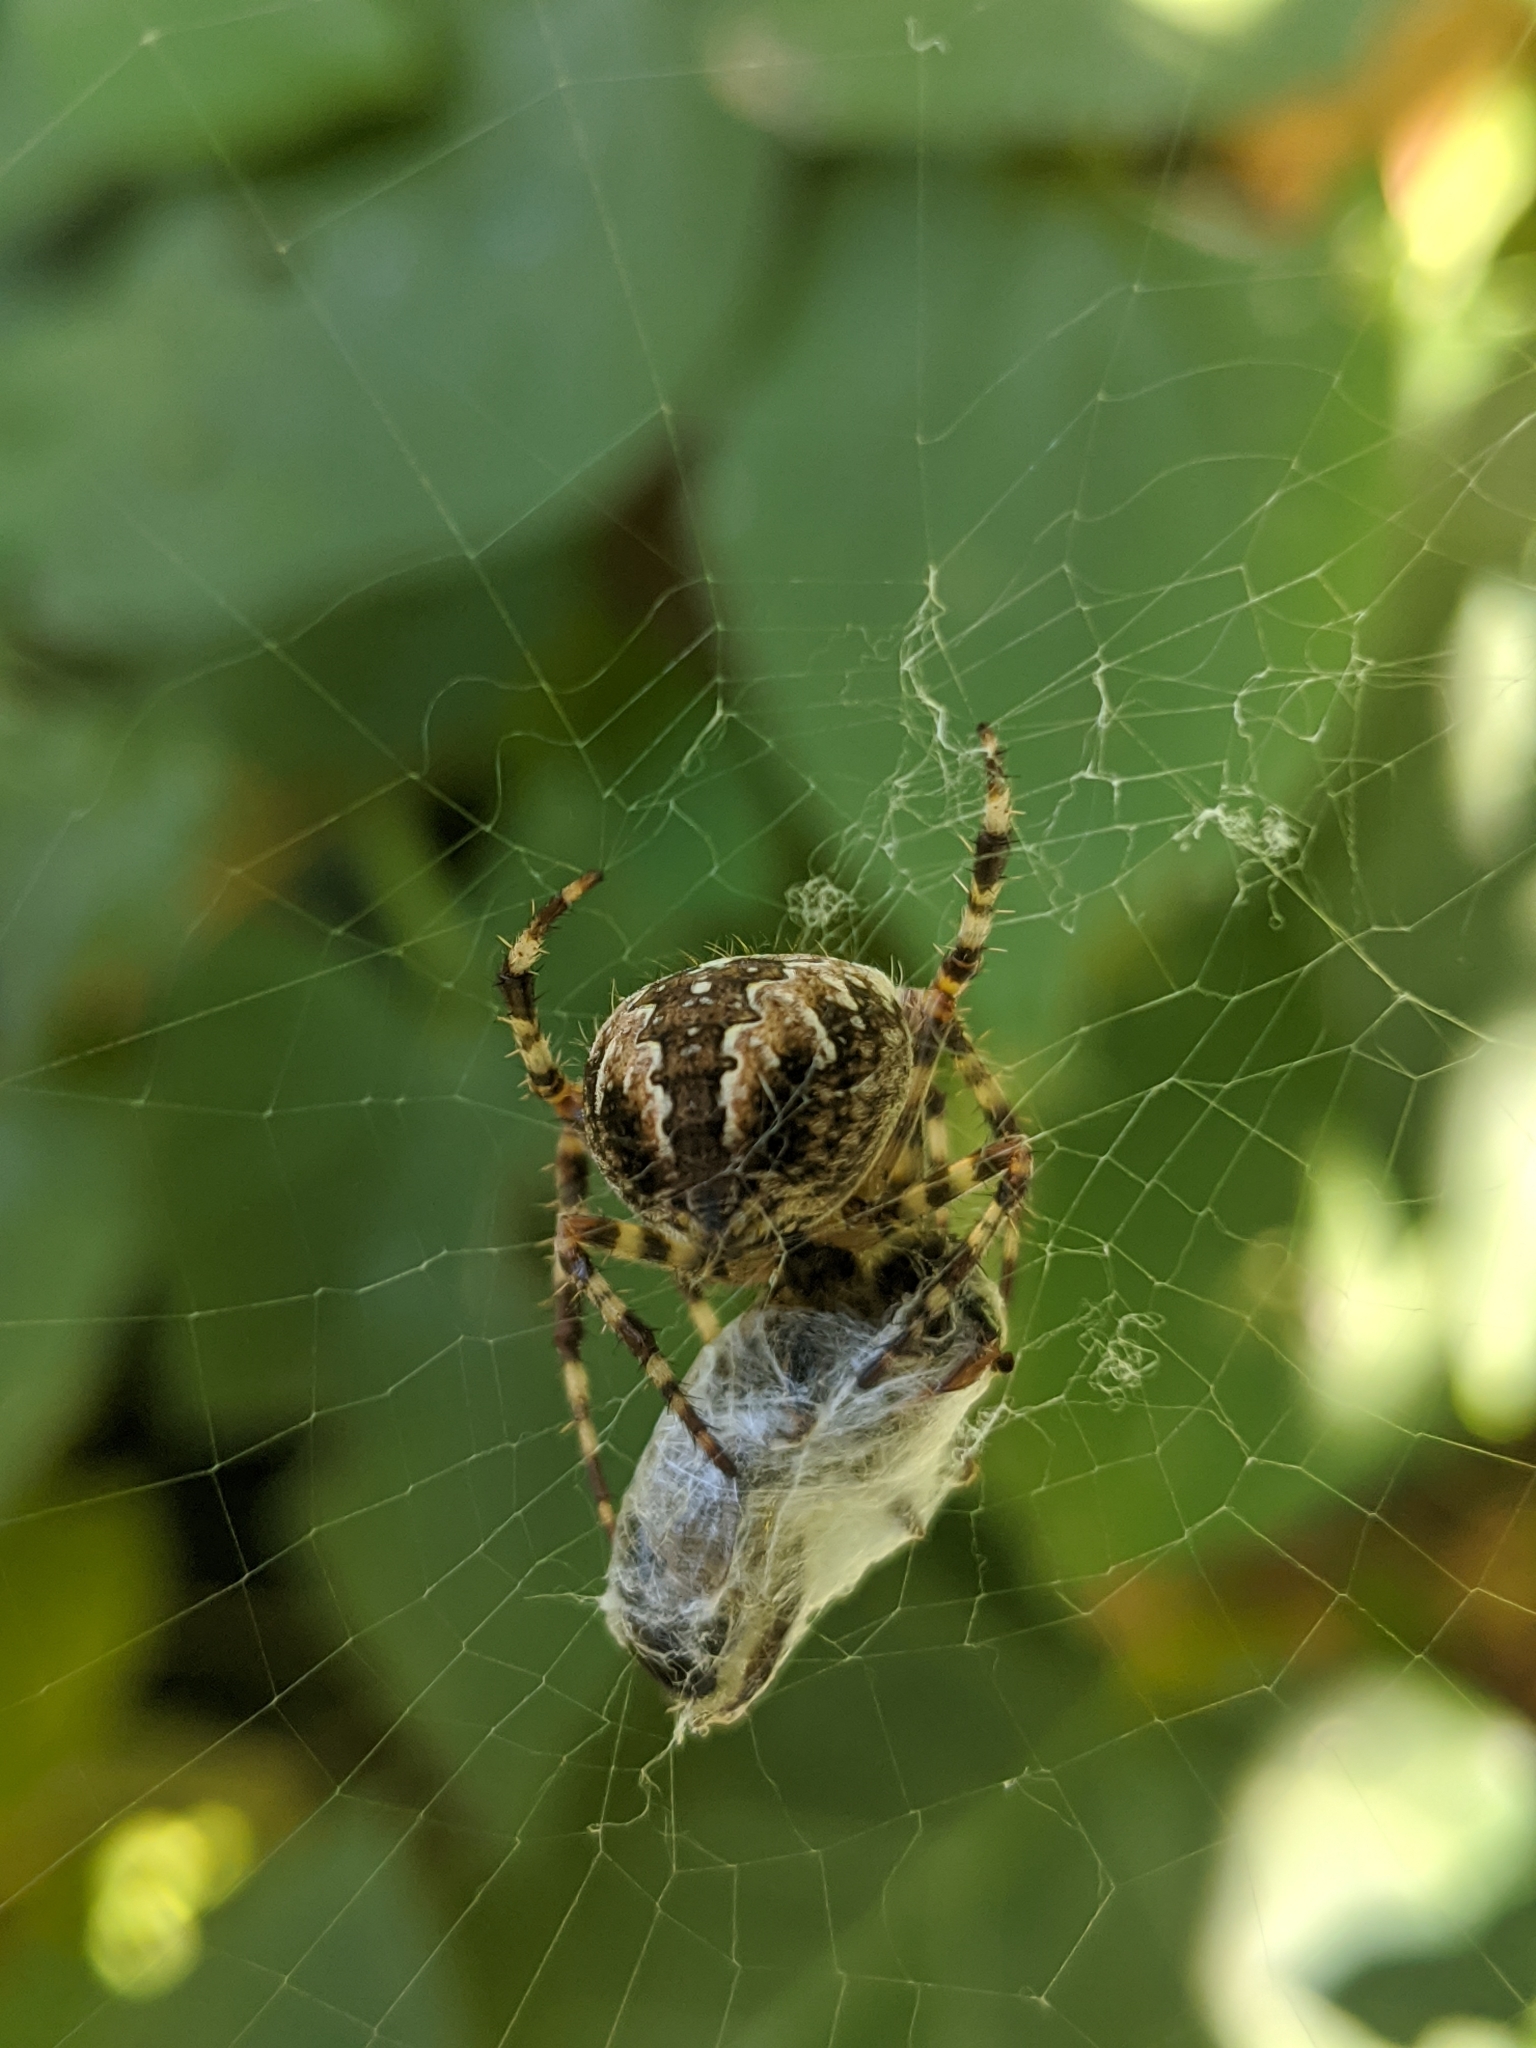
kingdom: Animalia
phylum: Arthropoda
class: Arachnida
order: Araneae
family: Araneidae
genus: Araneus
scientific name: Araneus diadematus
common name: Cross orbweaver
